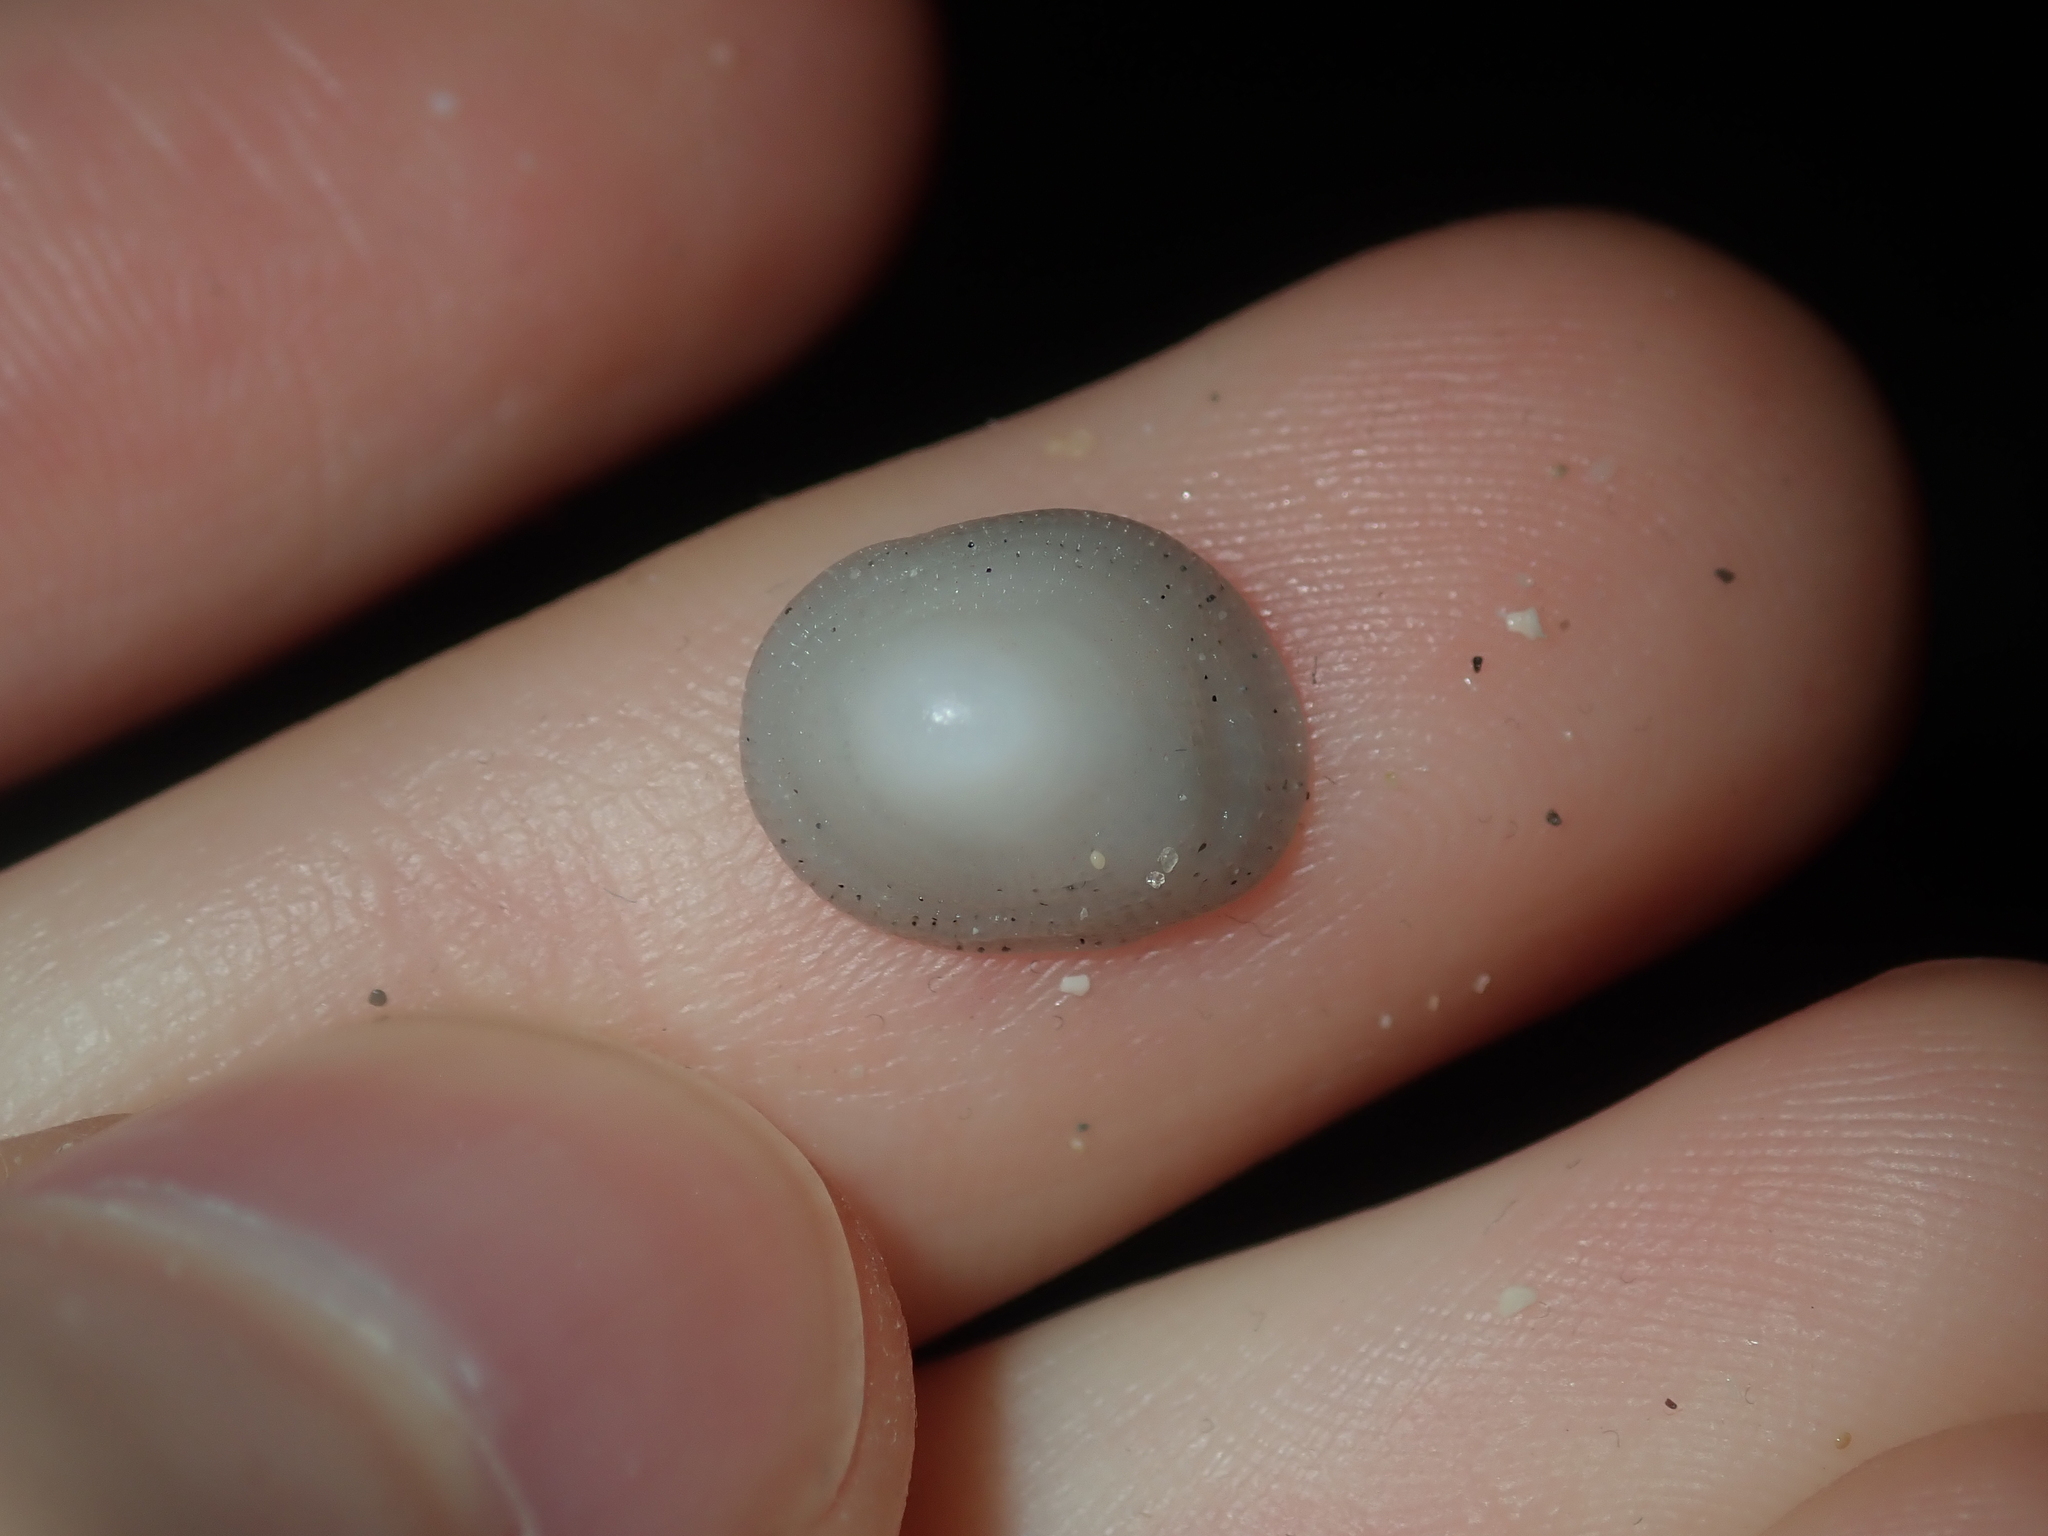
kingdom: Animalia
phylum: Mollusca
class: Gastropoda
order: Littorinimorpha
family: Hipponicidae
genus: Antisabia
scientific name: Antisabia foliacea
